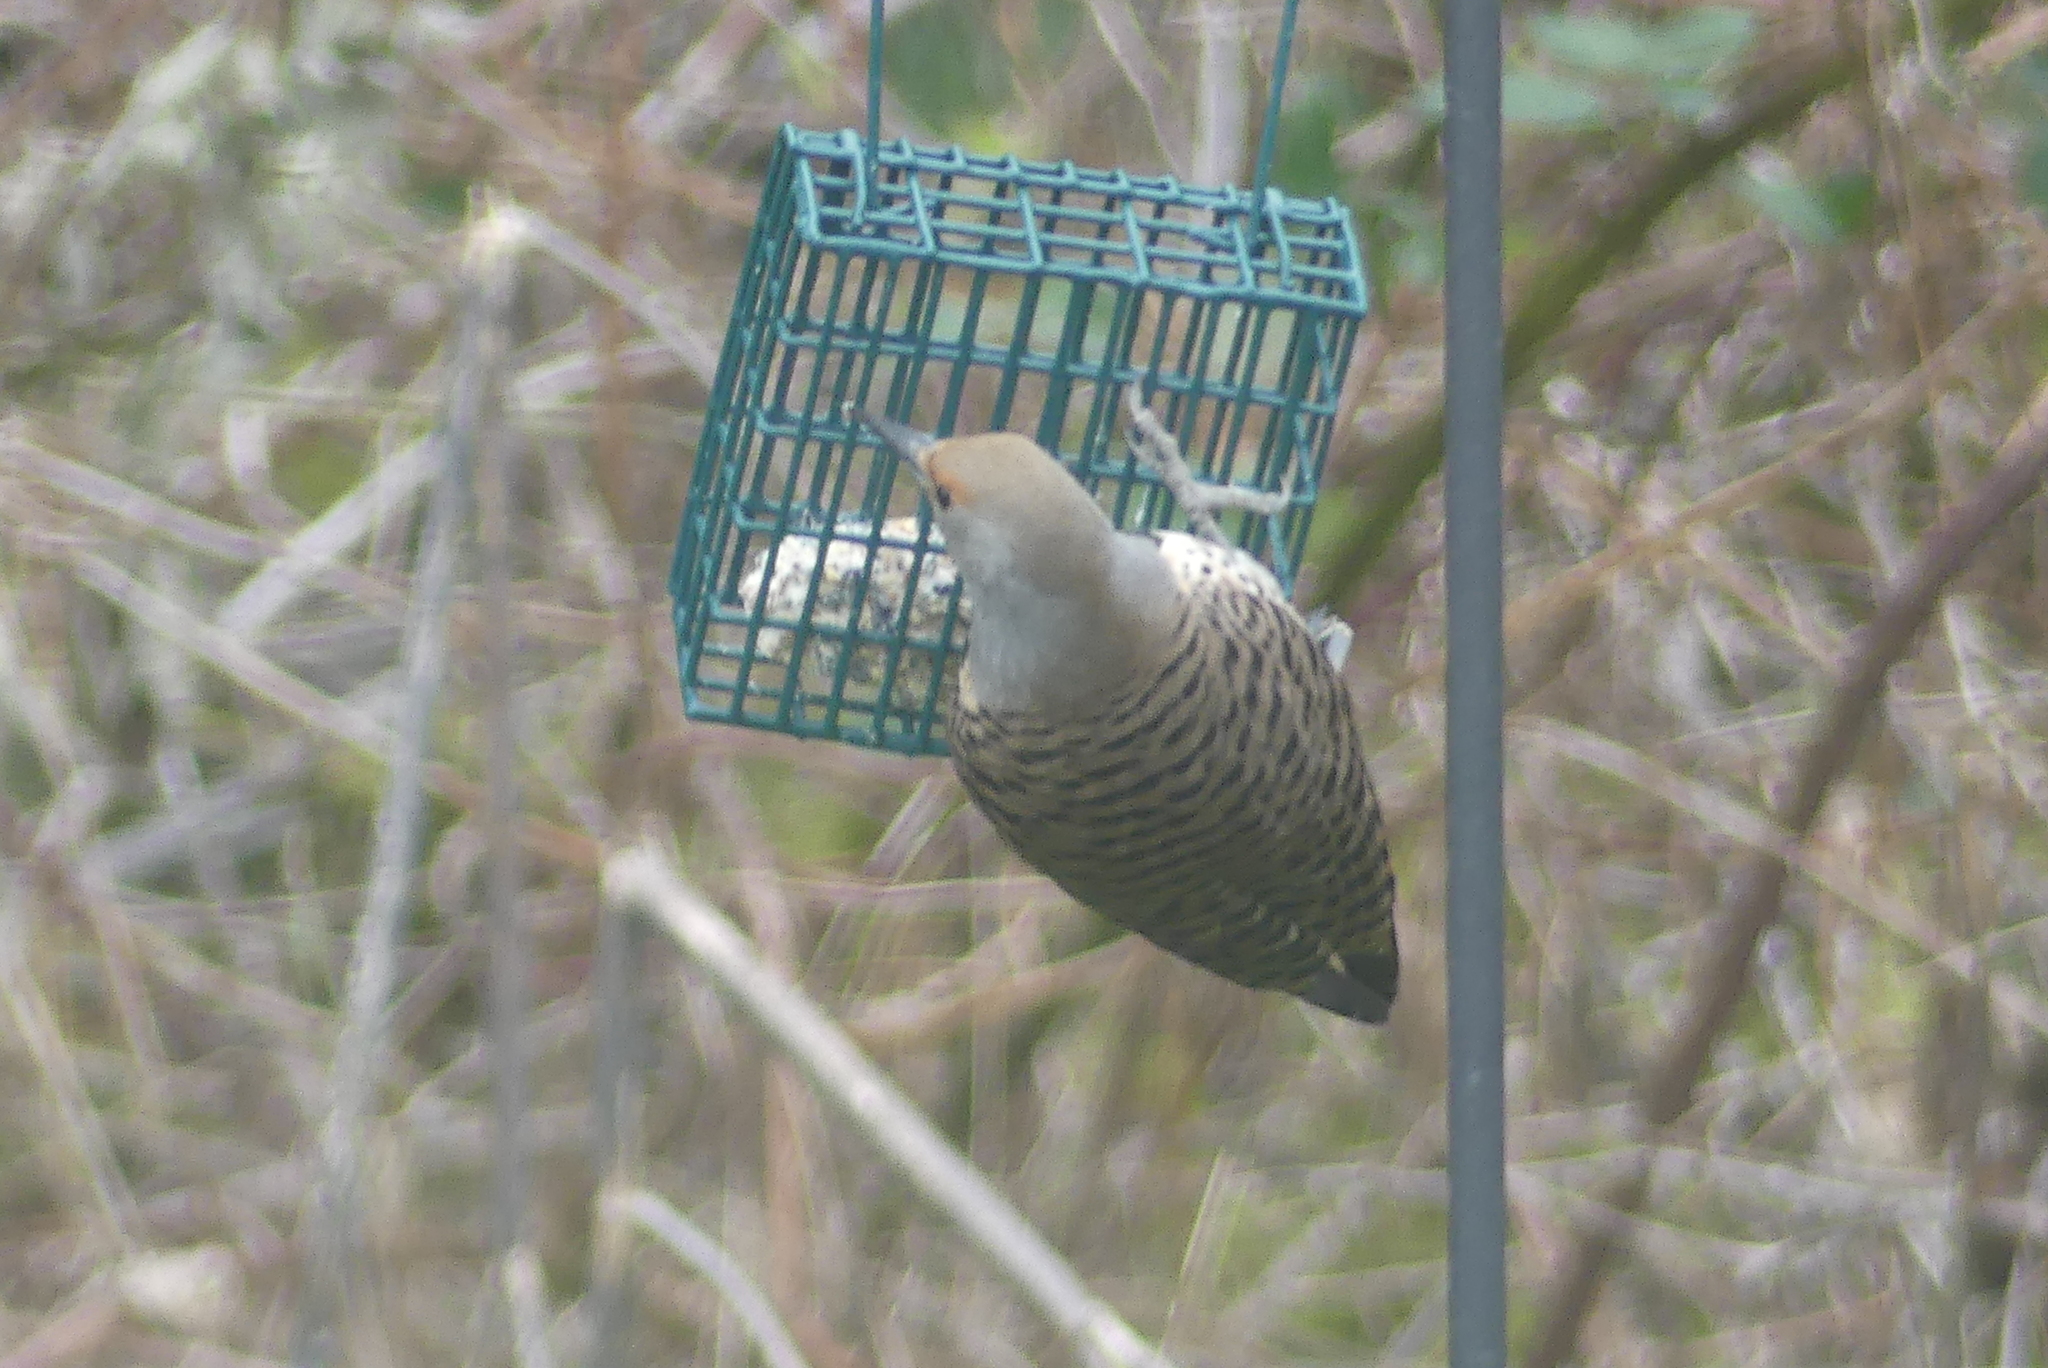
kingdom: Animalia
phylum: Chordata
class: Aves
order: Piciformes
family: Picidae
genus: Colaptes
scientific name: Colaptes auratus
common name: Northern flicker
